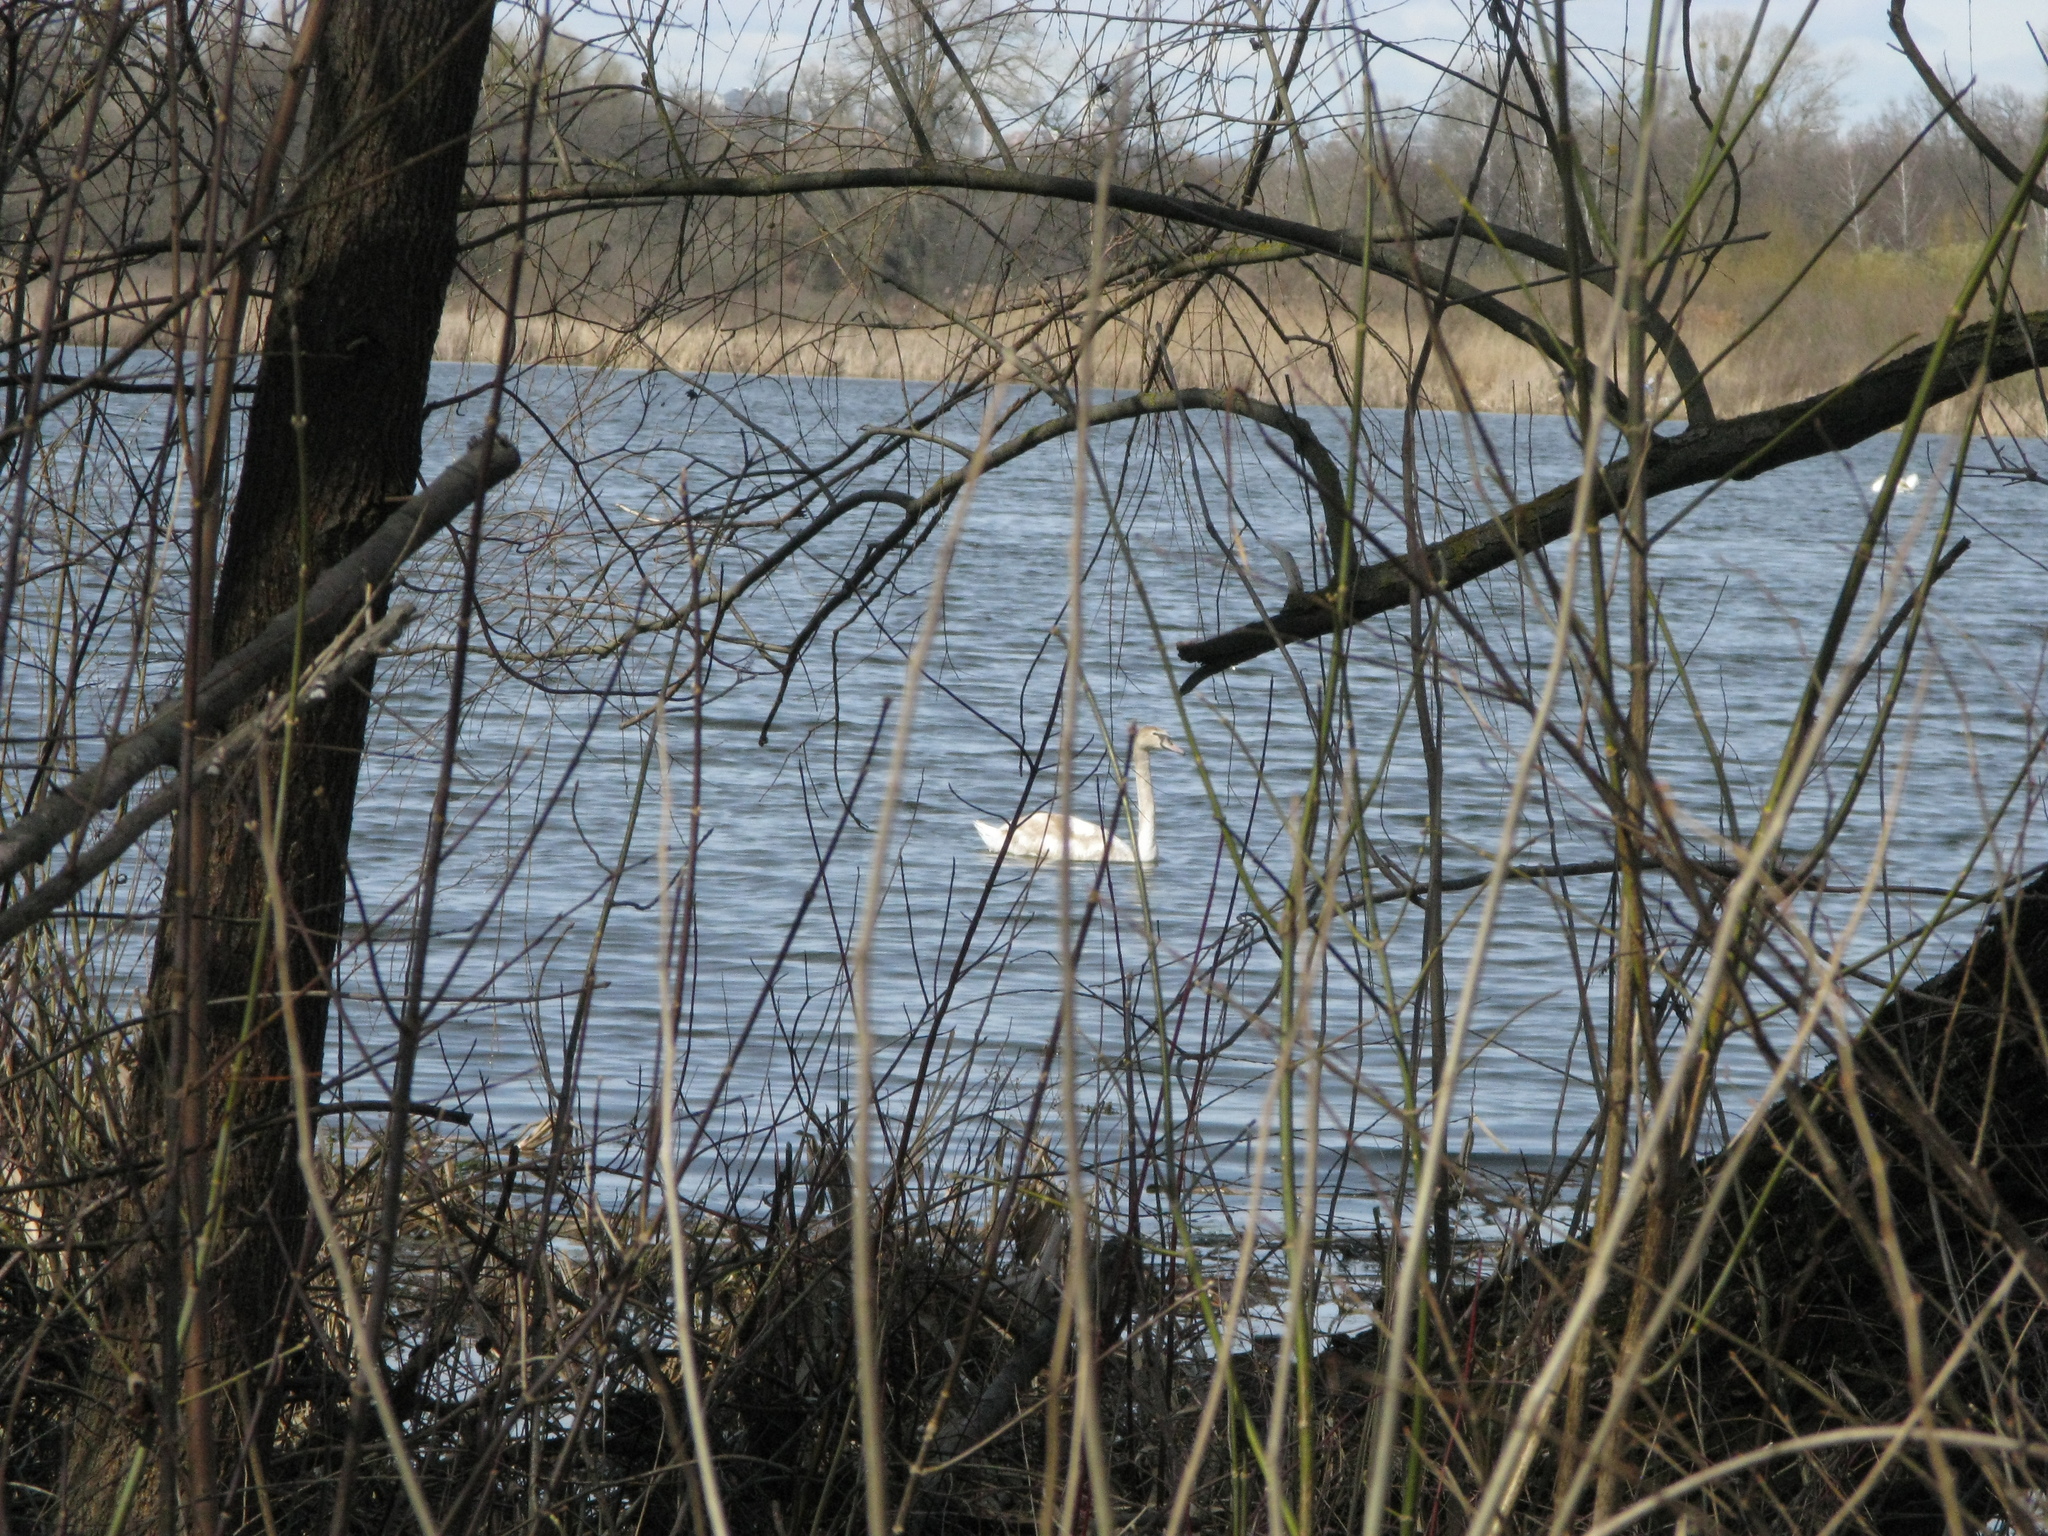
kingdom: Animalia
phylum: Chordata
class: Aves
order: Anseriformes
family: Anatidae
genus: Cygnus
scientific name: Cygnus olor
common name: Mute swan
